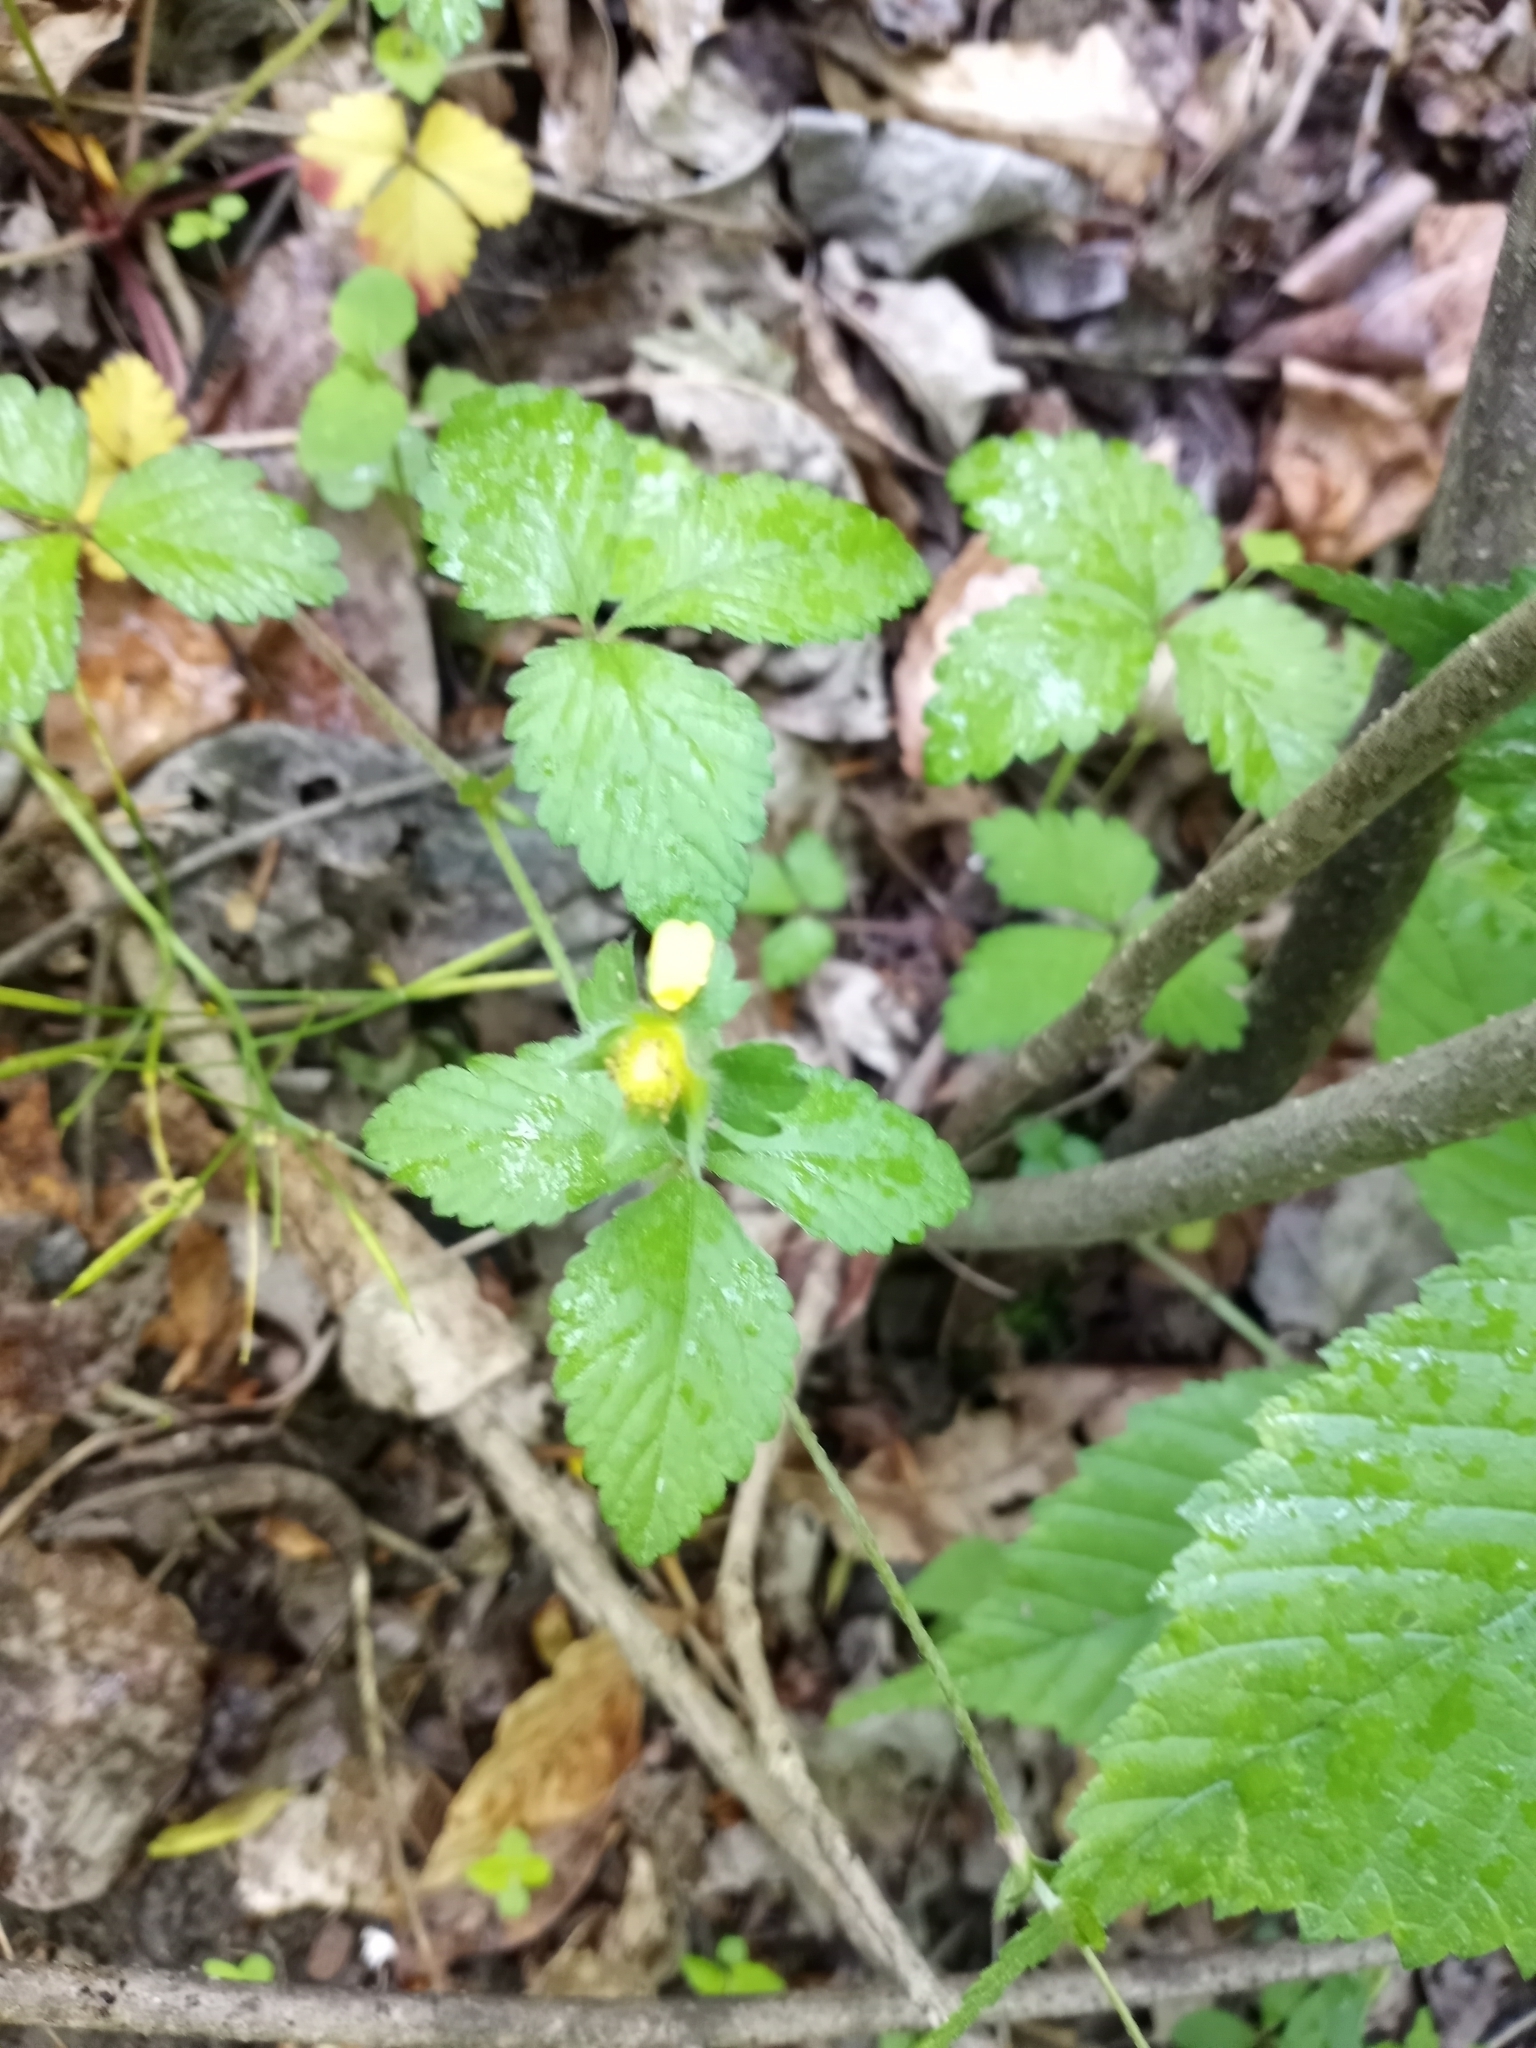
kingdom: Plantae
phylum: Tracheophyta
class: Magnoliopsida
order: Rosales
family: Rosaceae
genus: Potentilla
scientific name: Potentilla indica
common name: Yellow-flowered strawberry
